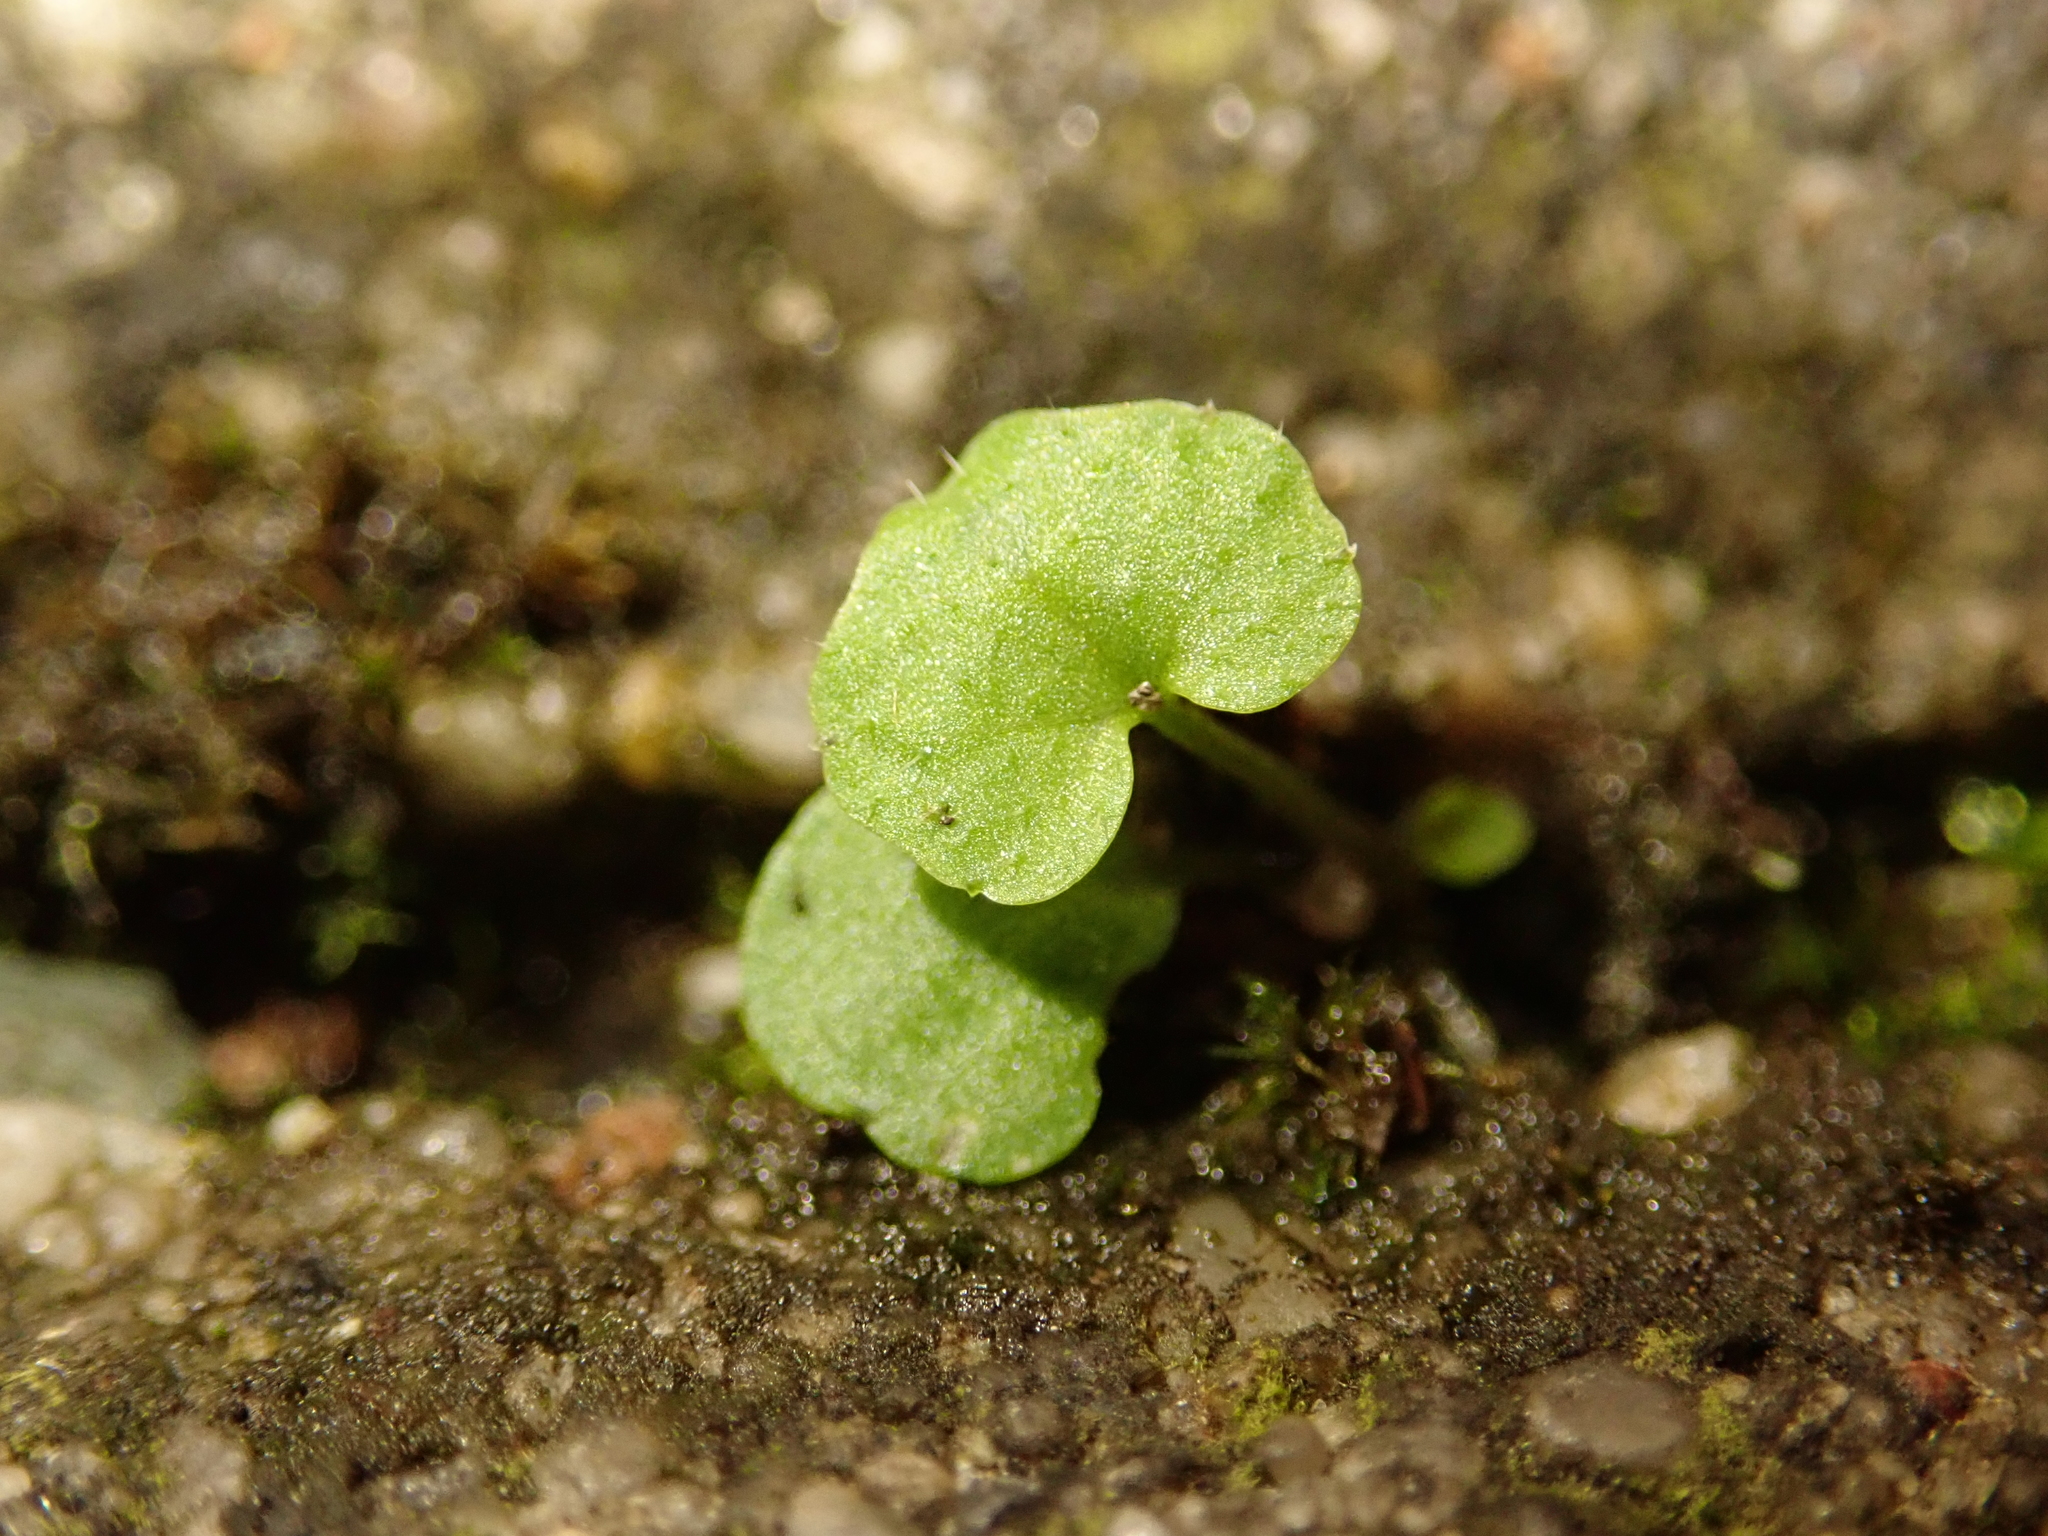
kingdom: Plantae
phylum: Tracheophyta
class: Magnoliopsida
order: Brassicales
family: Brassicaceae
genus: Cardamine
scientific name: Cardamine hirsuta
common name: Hairy bittercress
